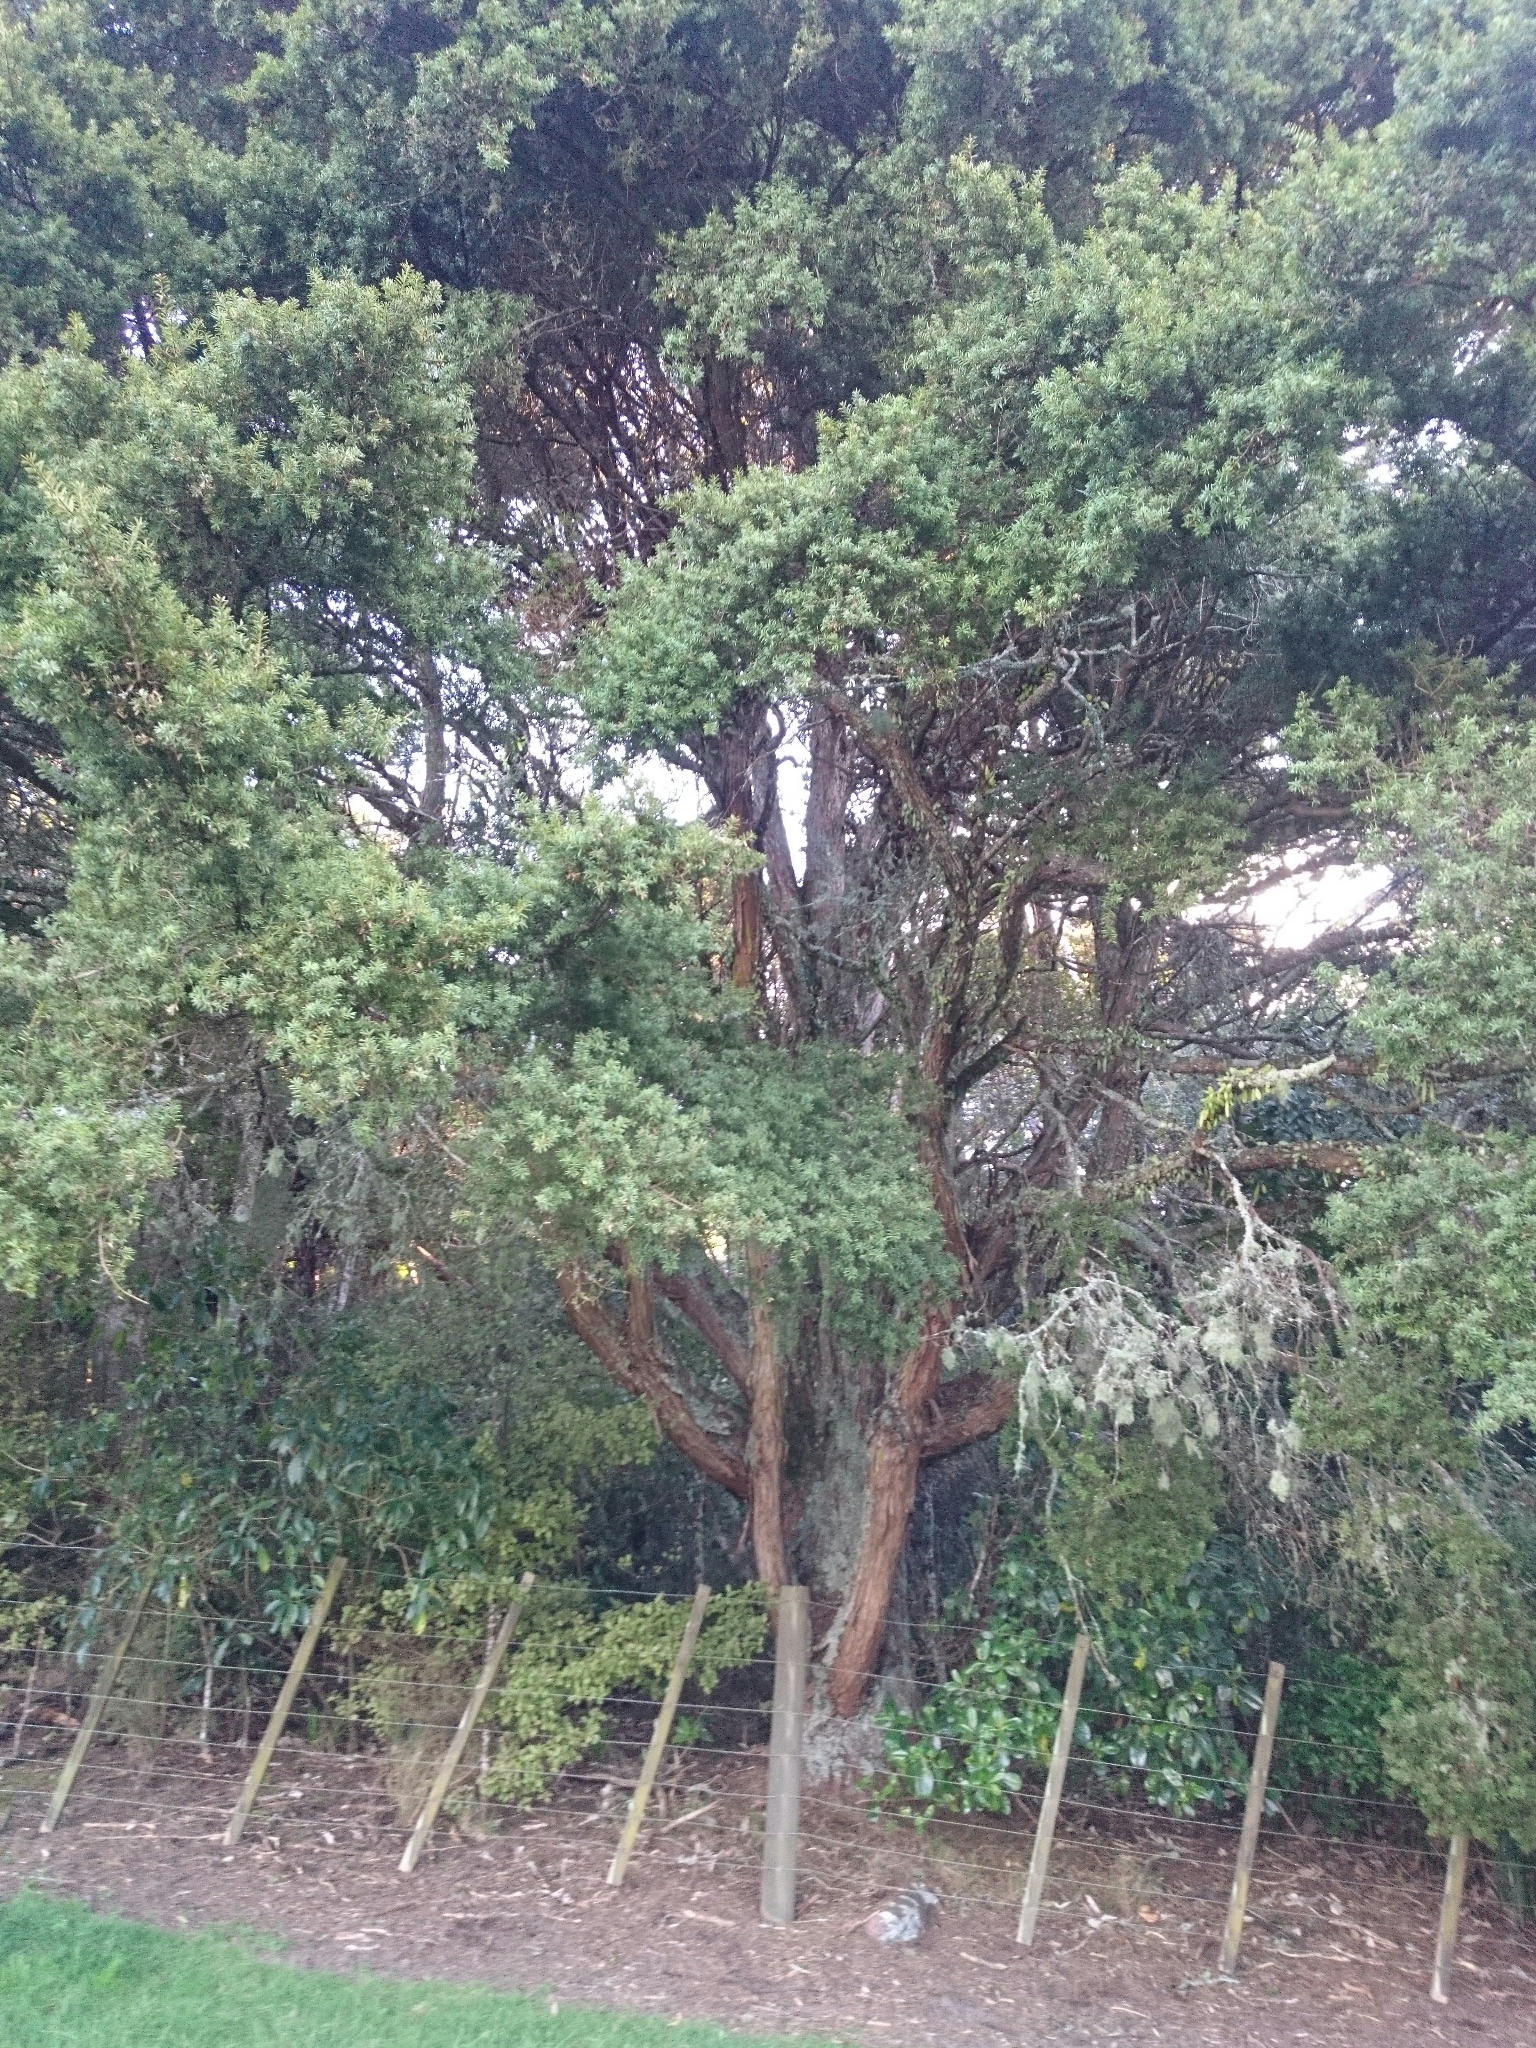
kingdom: Plantae
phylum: Tracheophyta
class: Pinopsida
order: Pinales
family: Podocarpaceae
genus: Podocarpus
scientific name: Podocarpus totara
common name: Totara
